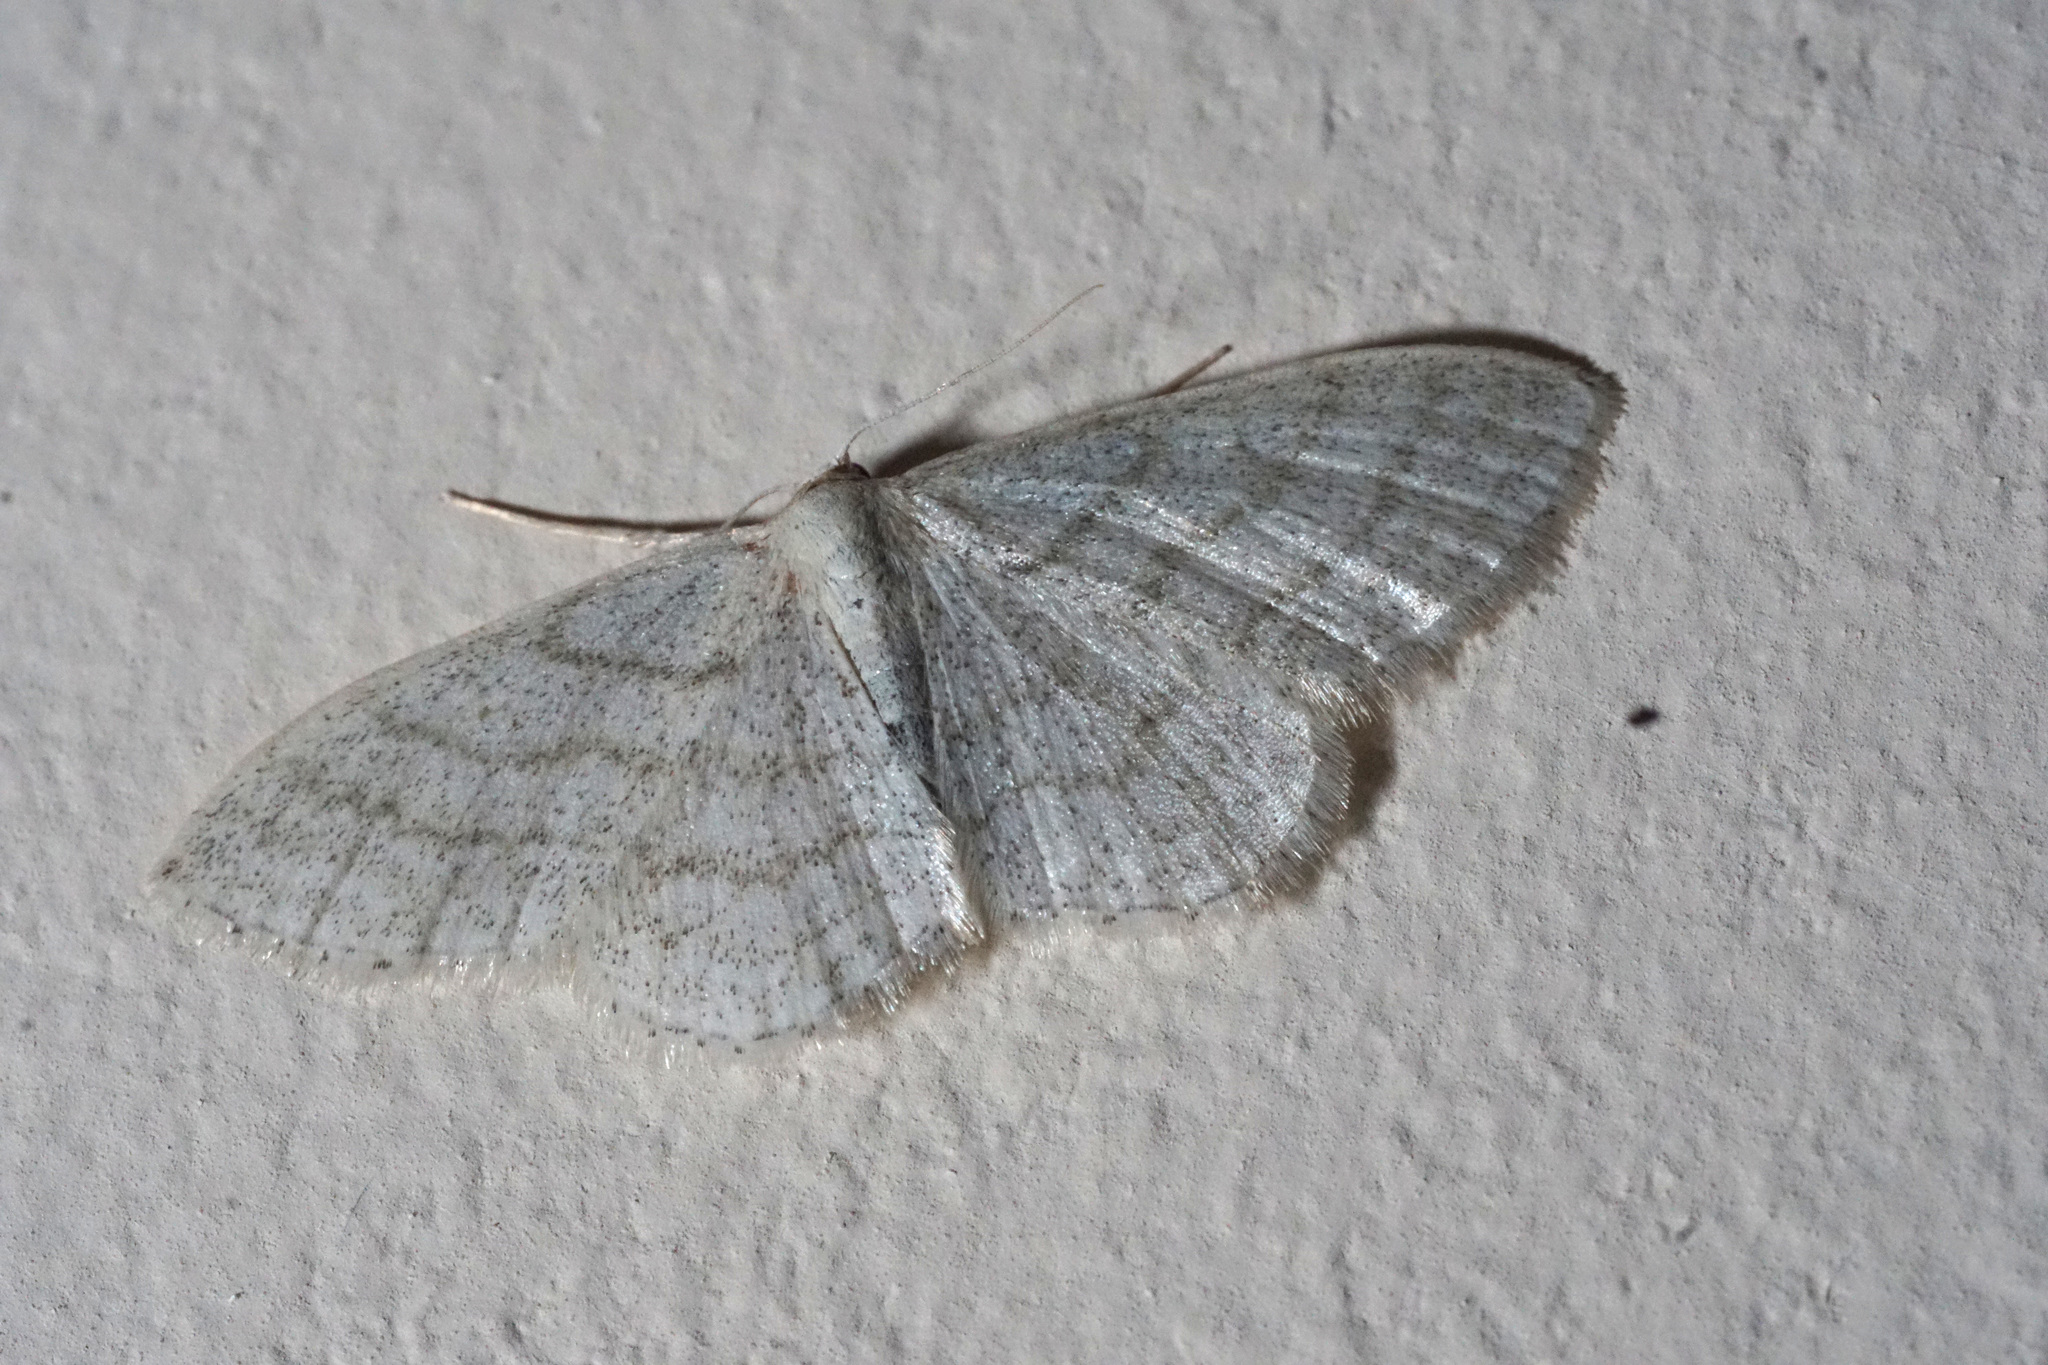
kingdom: Animalia
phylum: Arthropoda
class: Insecta
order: Lepidoptera
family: Geometridae
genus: Idaea
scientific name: Idaea subsericeata
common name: Satin wave
